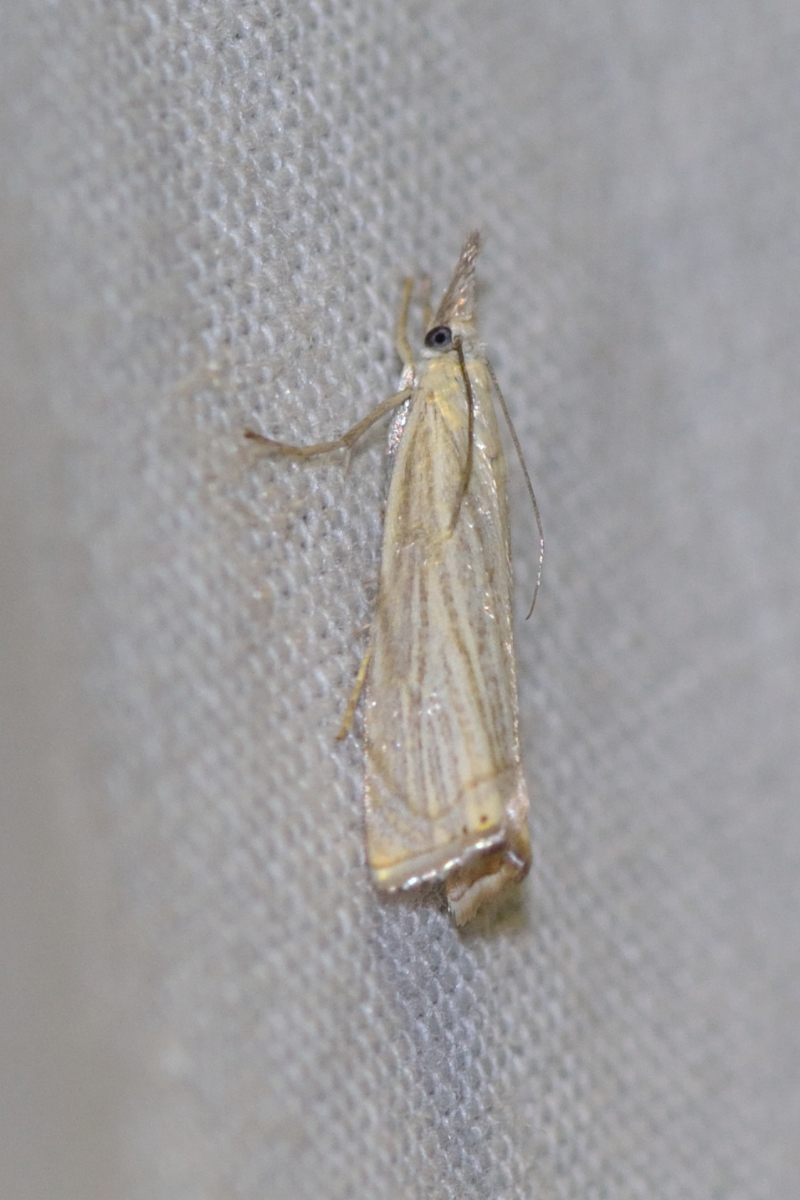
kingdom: Animalia
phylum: Arthropoda
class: Insecta
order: Lepidoptera
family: Crambidae
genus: Chrysoteuchia
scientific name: Chrysoteuchia culmella
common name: Garden grass-veneer
